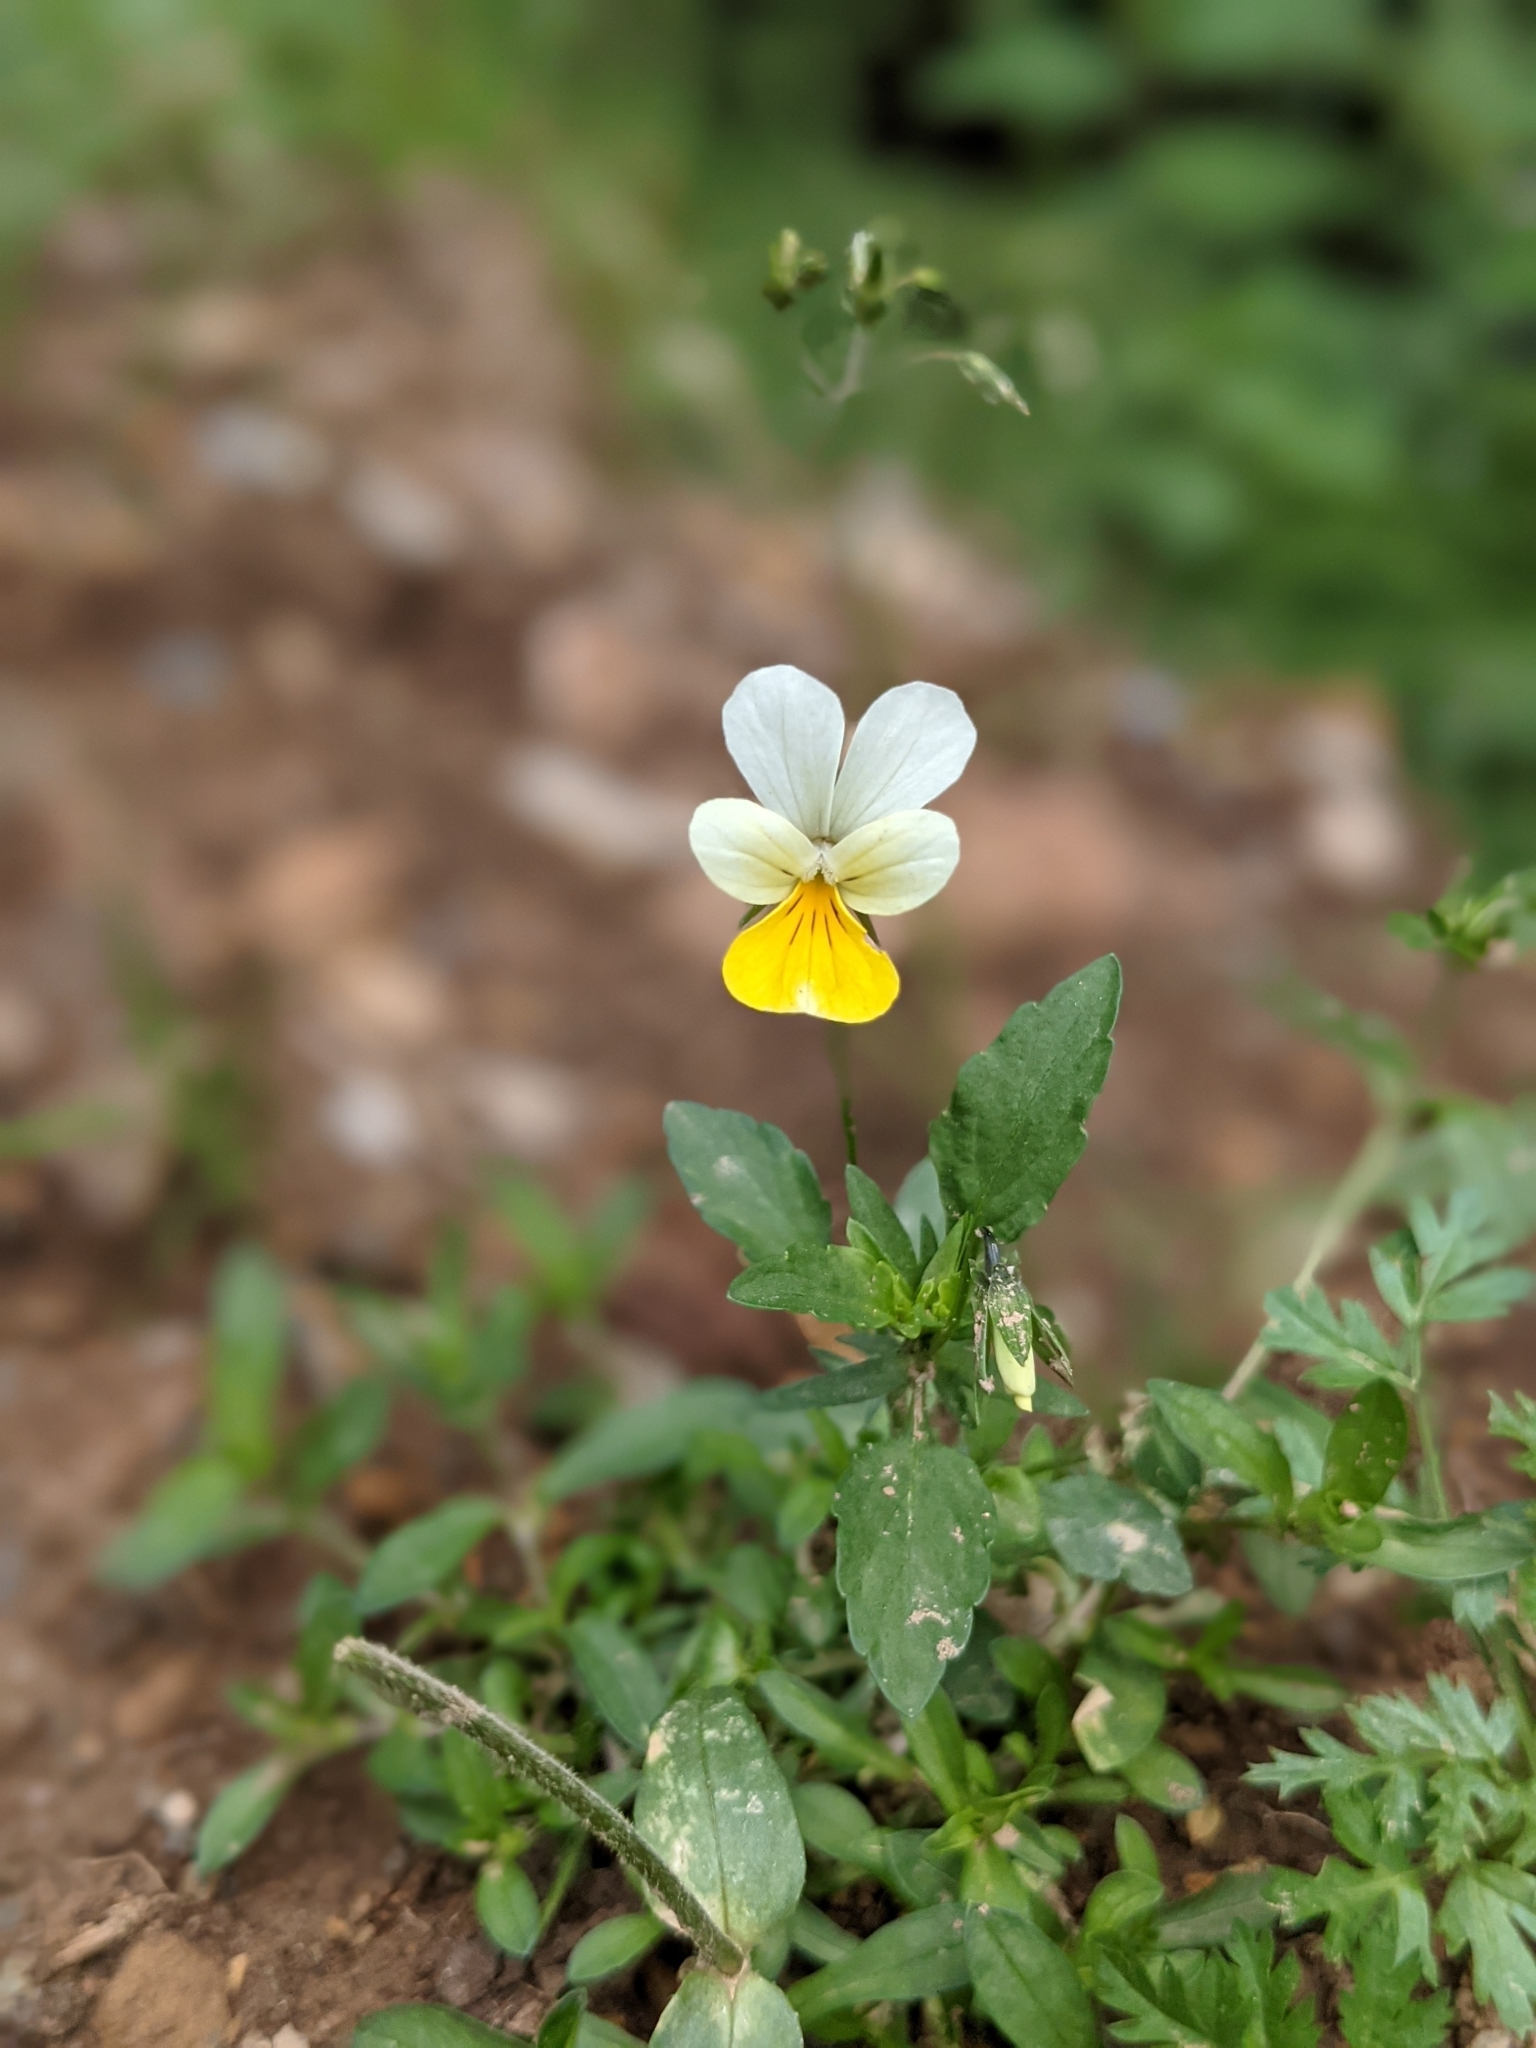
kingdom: Plantae
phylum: Tracheophyta
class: Magnoliopsida
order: Malpighiales
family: Violaceae
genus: Viola
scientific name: Viola tricolor
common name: Pansy
